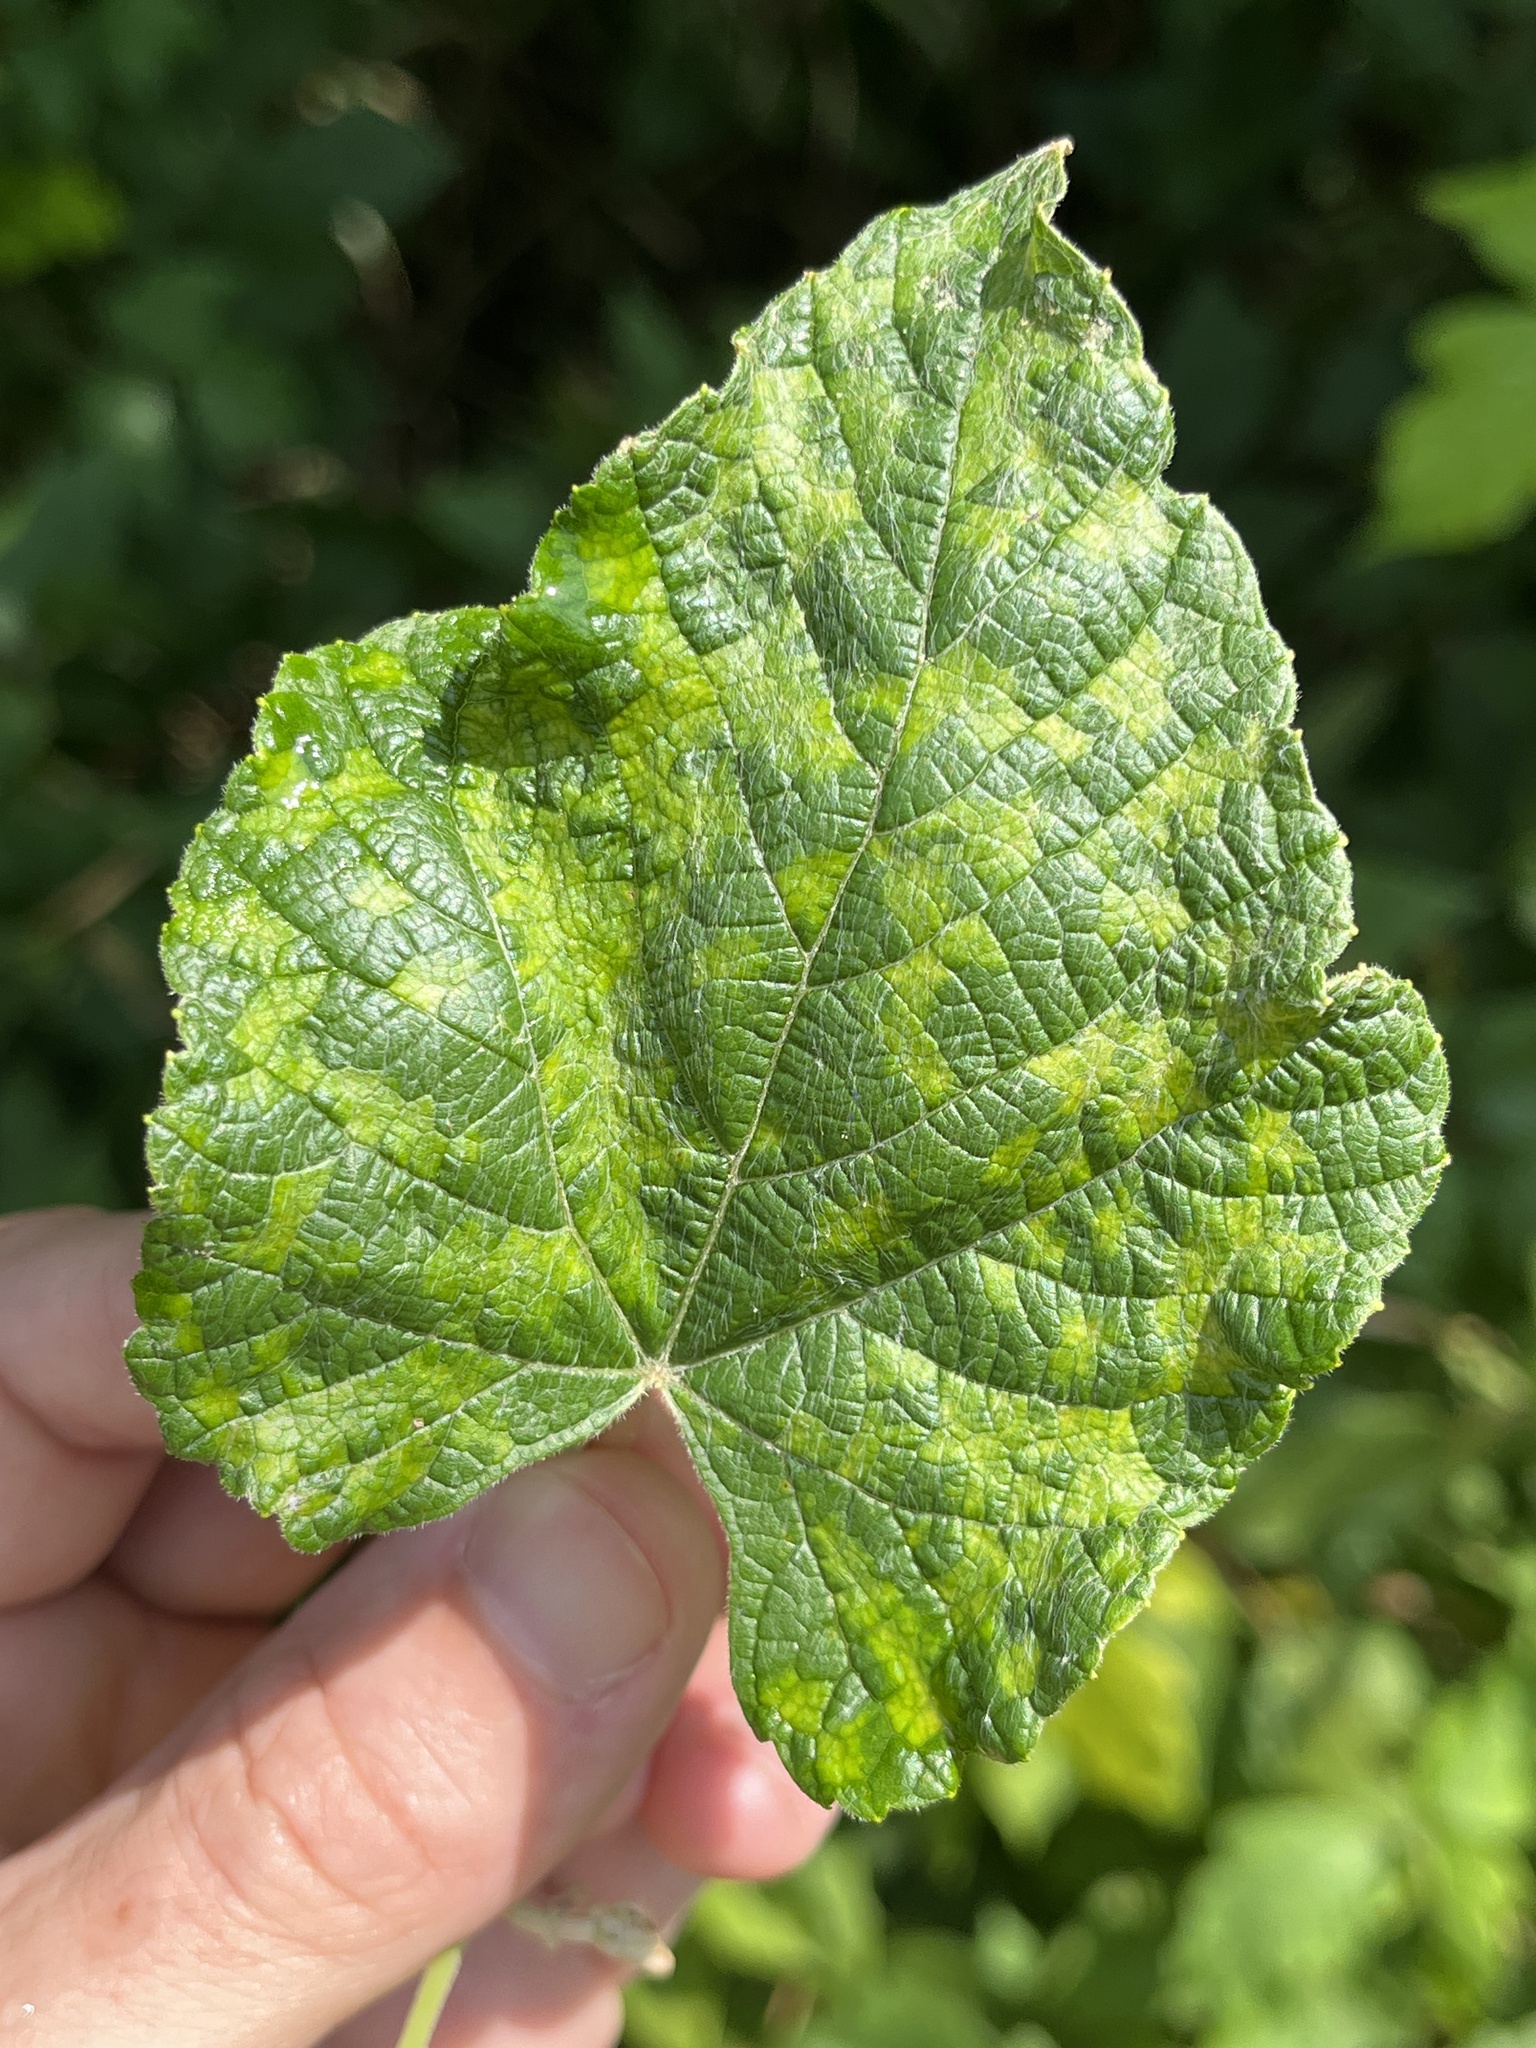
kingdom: Animalia
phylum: Arthropoda
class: Arachnida
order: Trombidiformes
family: Eriophyidae
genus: Colomerus
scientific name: Colomerus vitis
